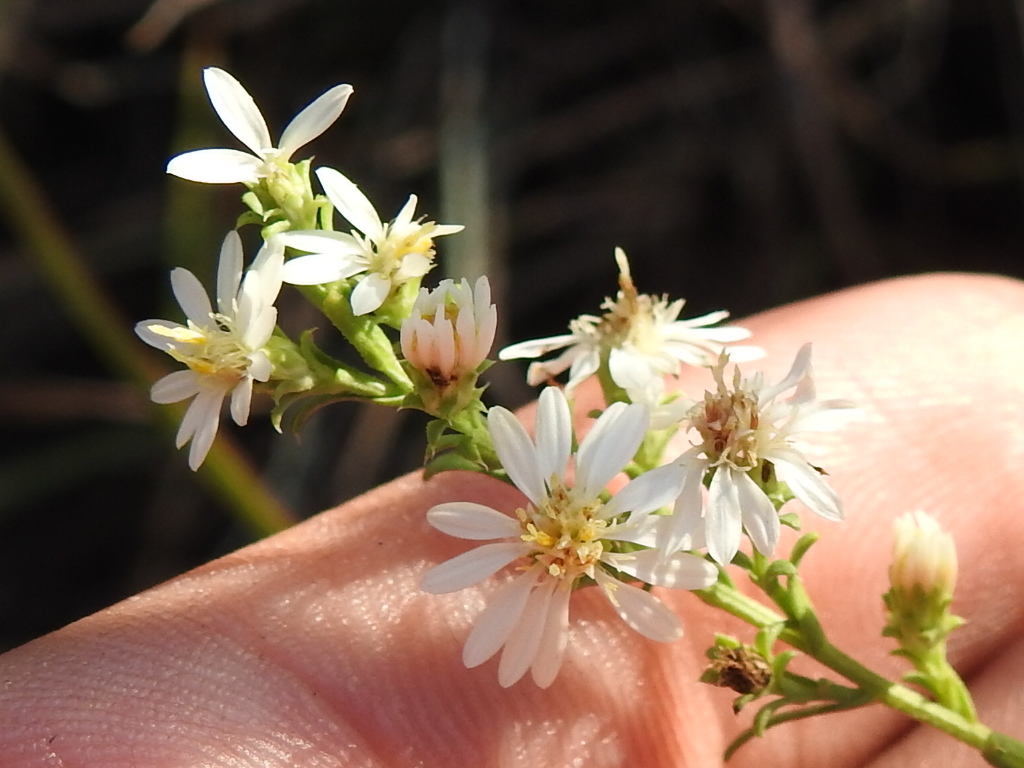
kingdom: Plantae
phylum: Tracheophyta
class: Magnoliopsida
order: Asterales
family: Asteraceae
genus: Symphyotrichum
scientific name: Symphyotrichum ericoides
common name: Heath aster
